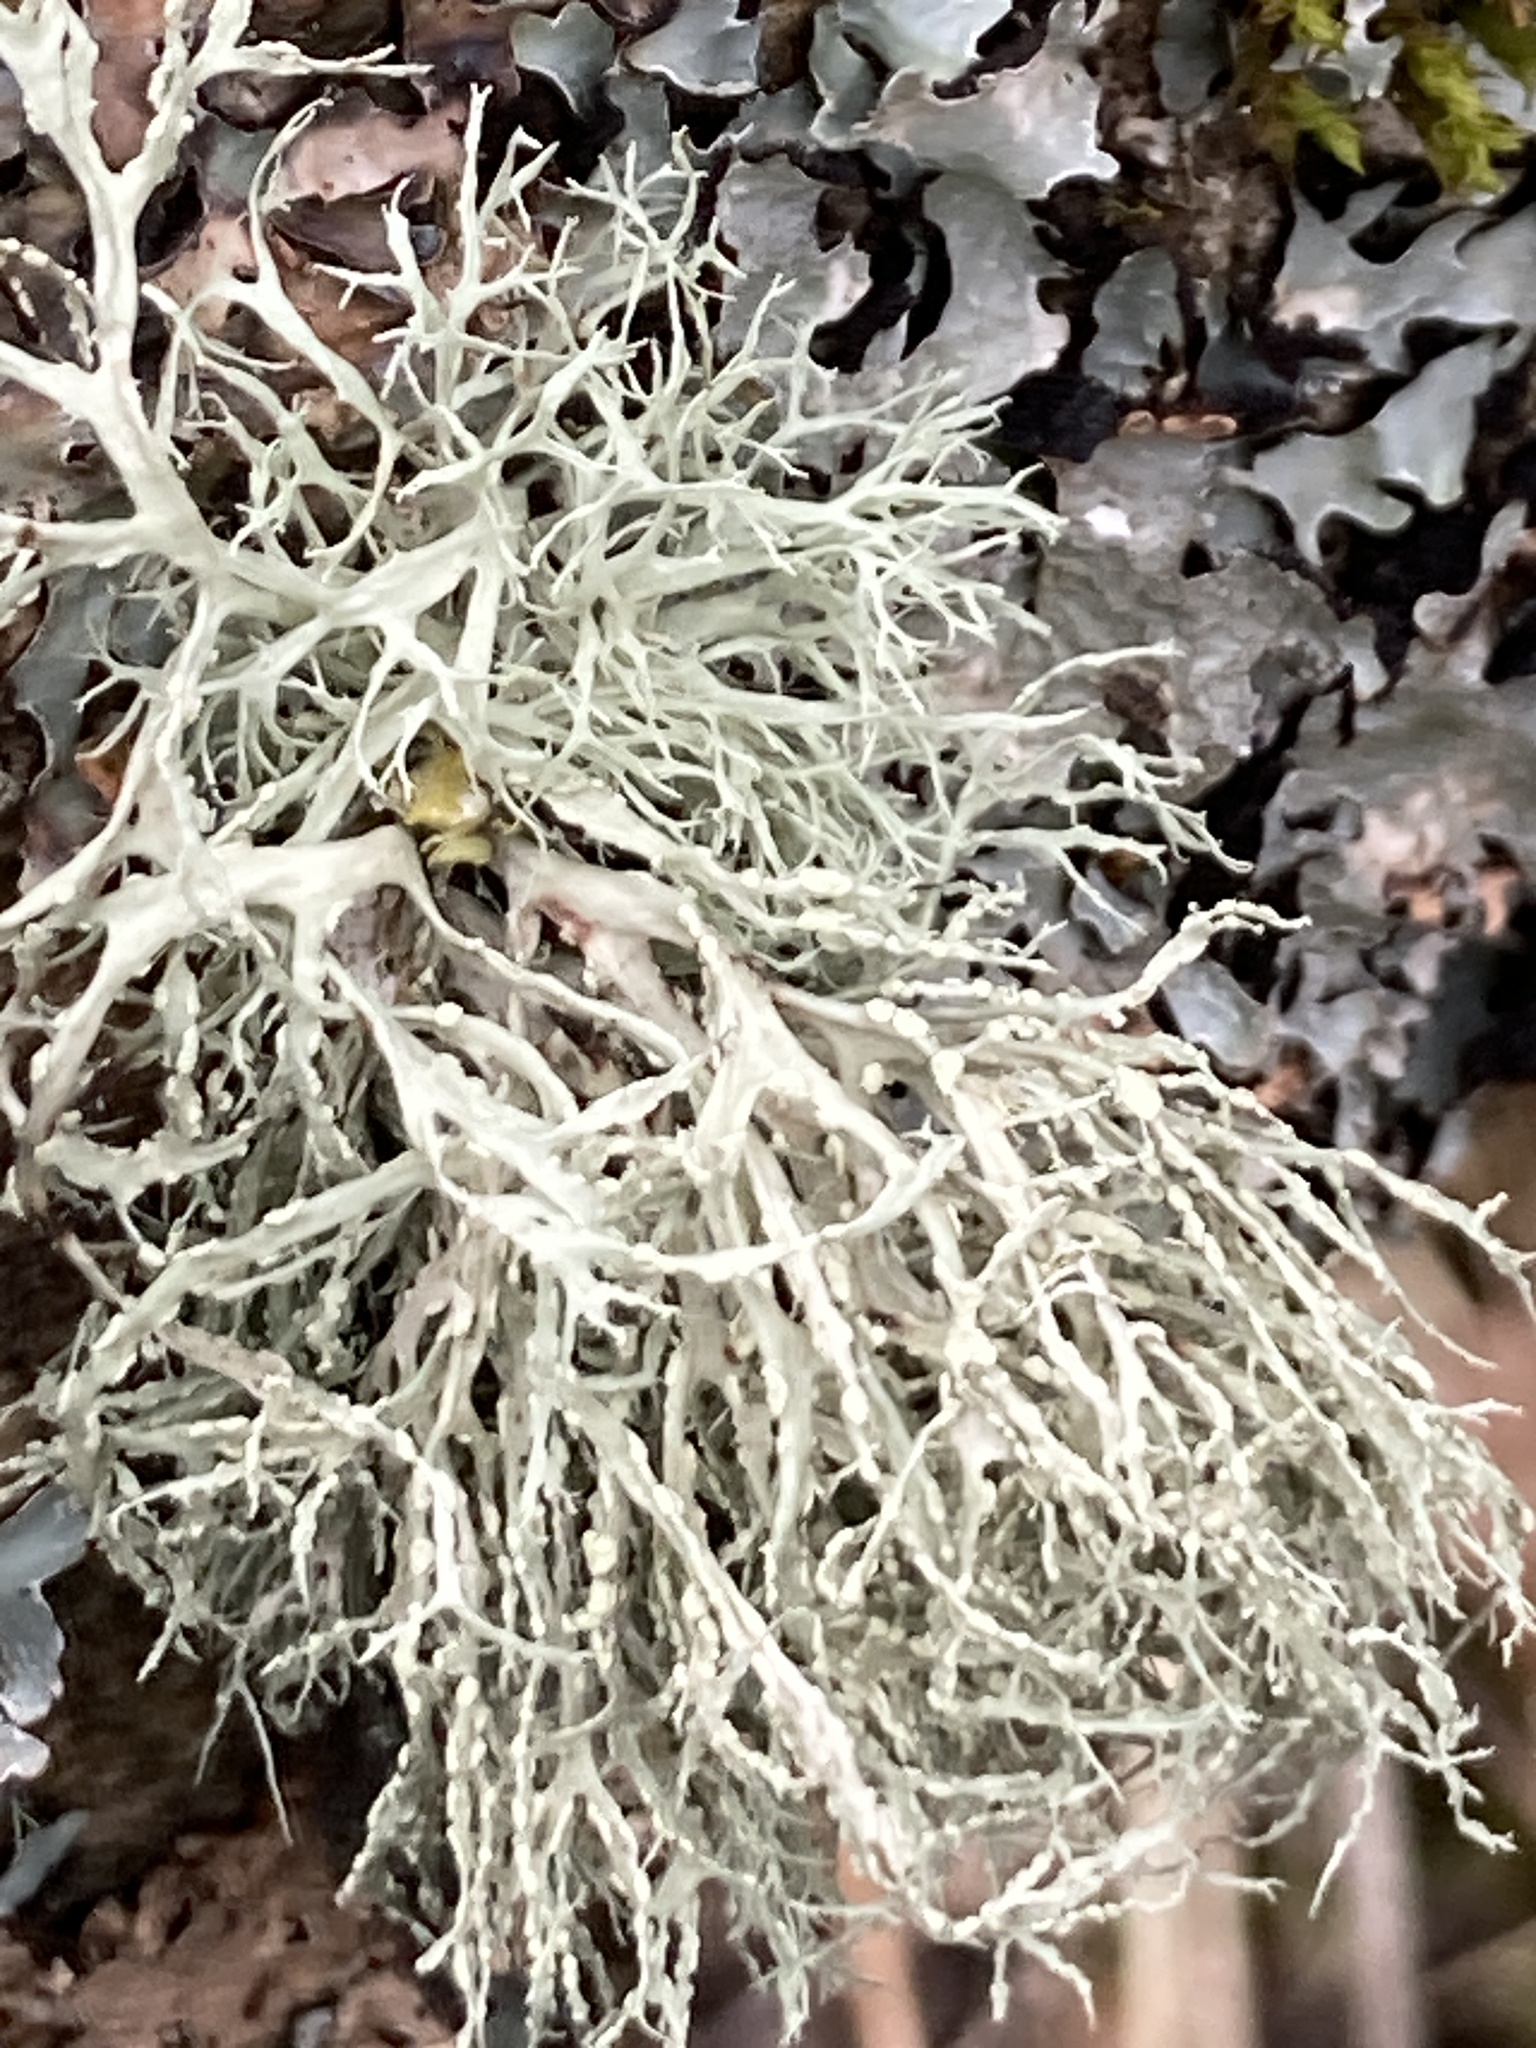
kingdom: Fungi
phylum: Ascomycota
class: Lecanoromycetes
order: Lecanorales
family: Ramalinaceae
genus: Ramalina
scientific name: Ramalina farinacea
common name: Farinose cartilage lichen
